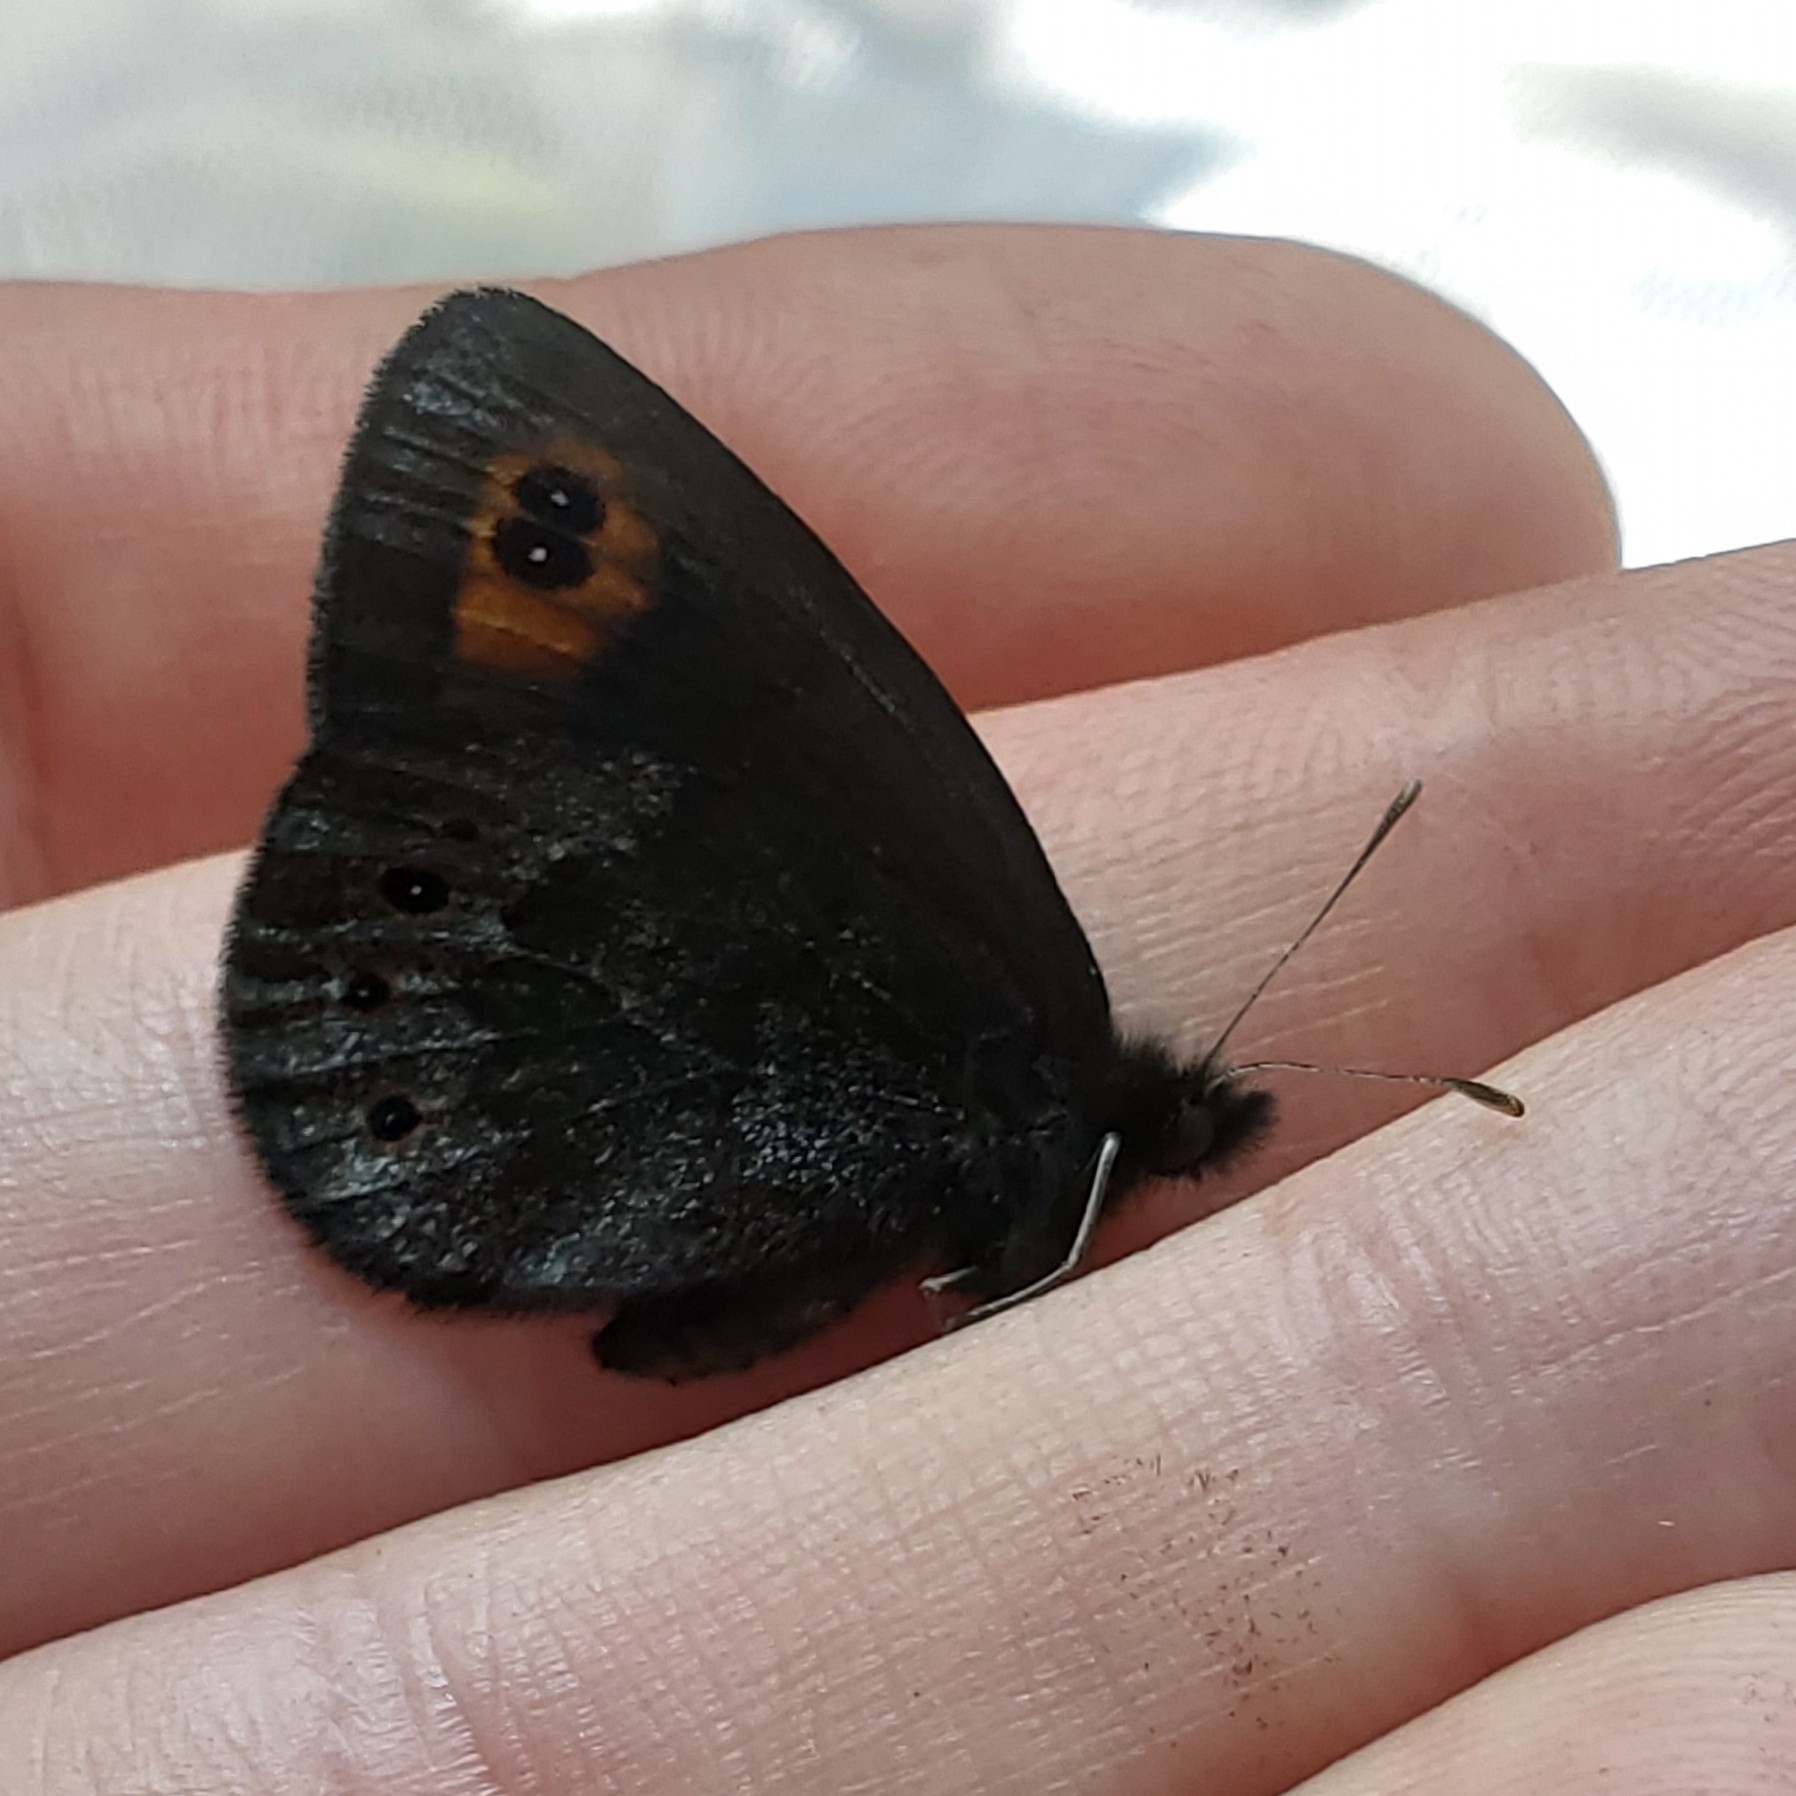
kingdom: Animalia
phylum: Arthropoda
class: Insecta
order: Lepidoptera
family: Nymphalidae
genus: Erebia
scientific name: Erebia epipsodea
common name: Common alpine
